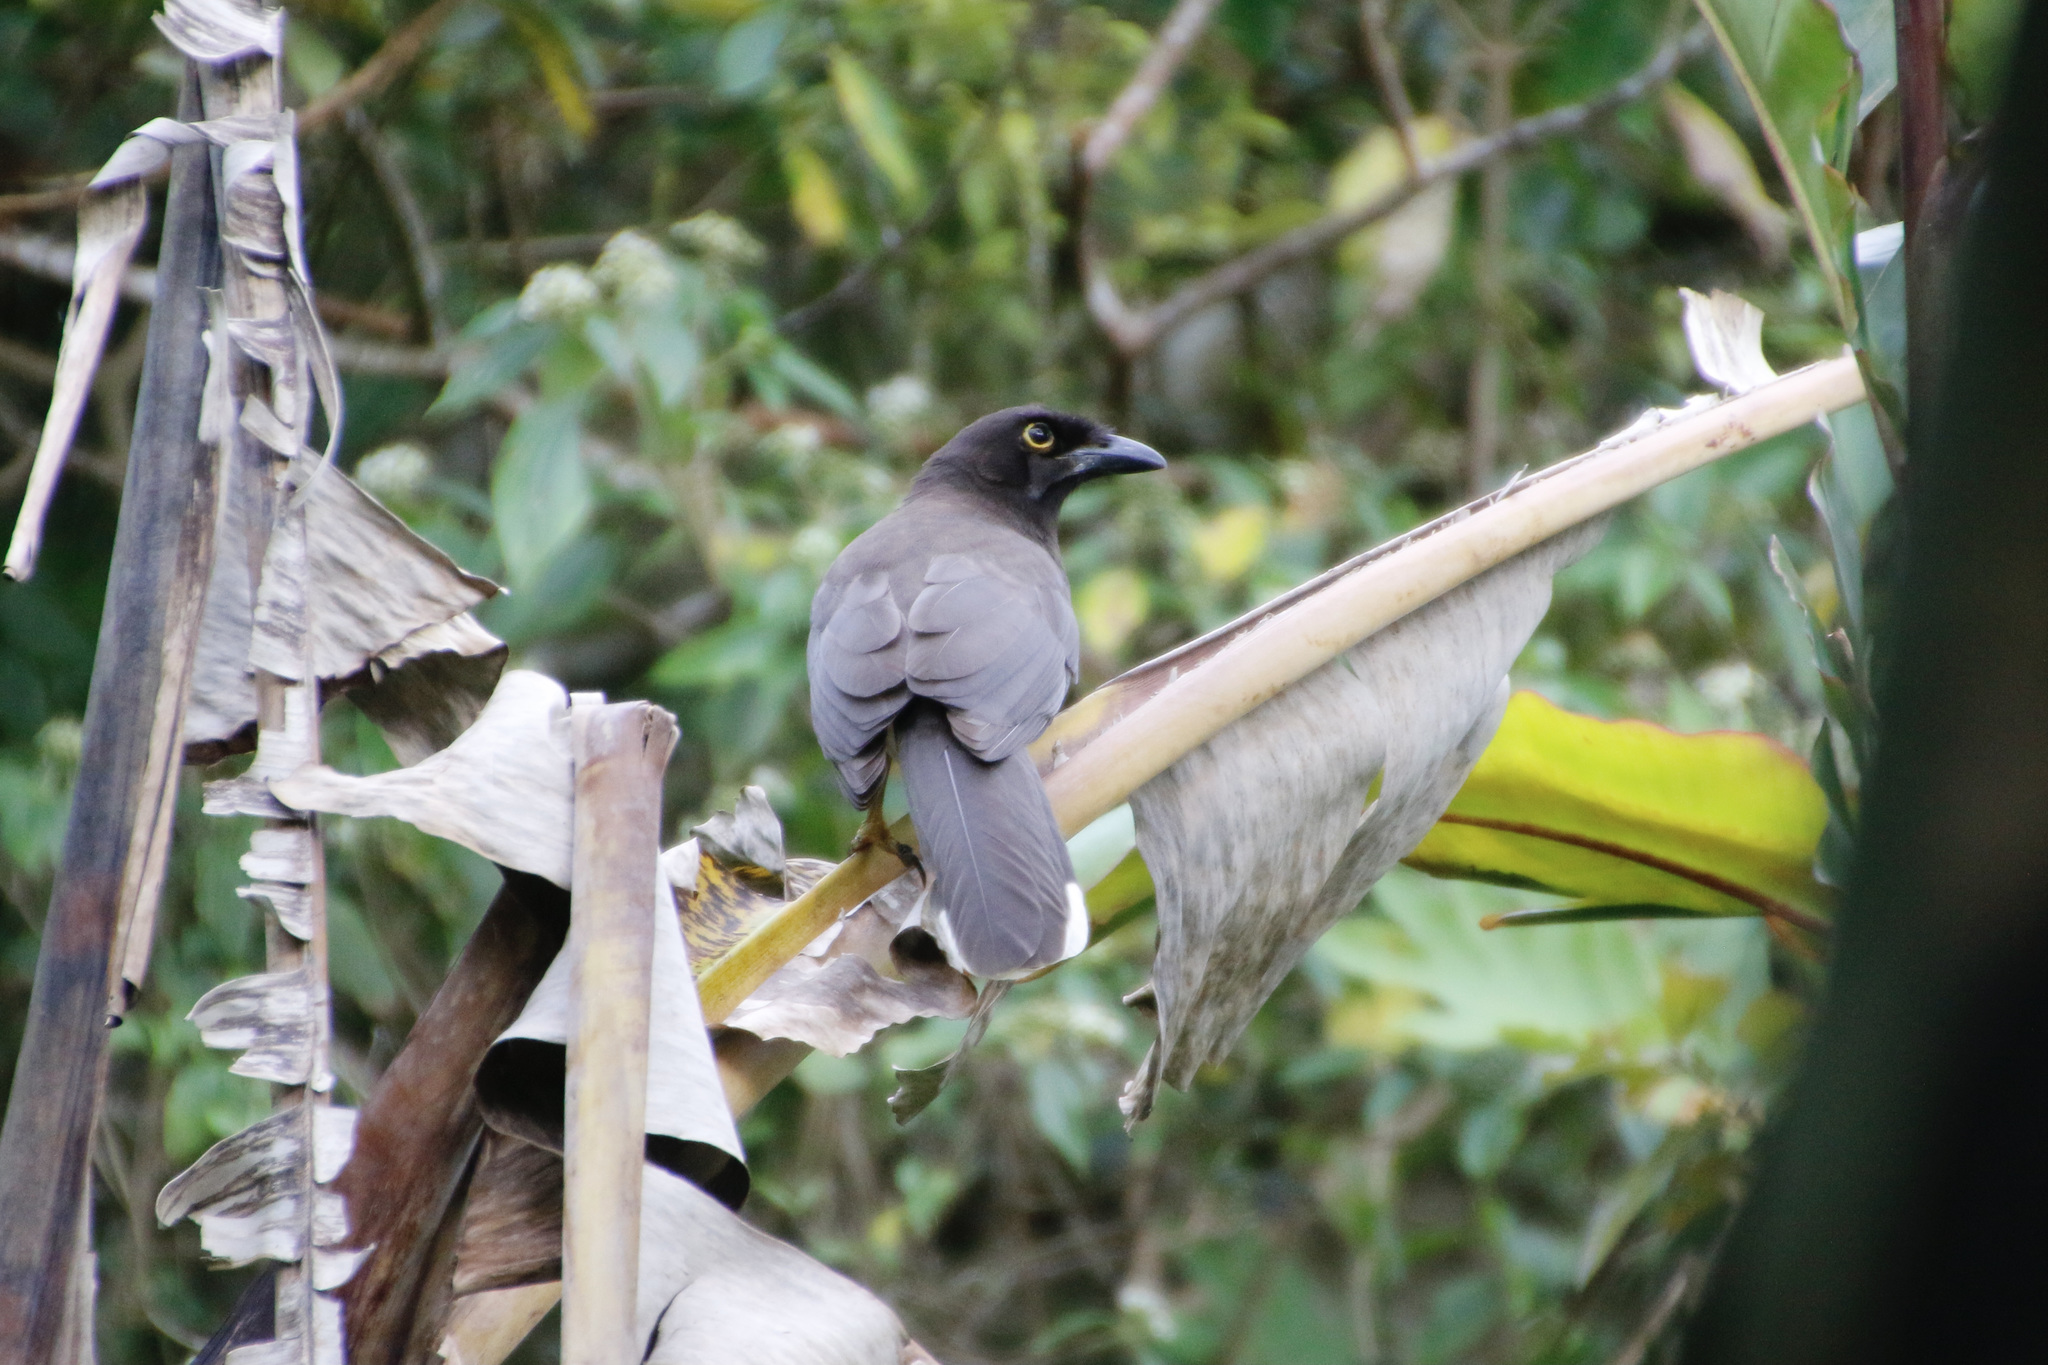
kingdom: Animalia
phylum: Chordata
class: Aves
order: Passeriformes
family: Corvidae
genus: Psilorhinus
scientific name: Psilorhinus morio
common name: Brown jay
